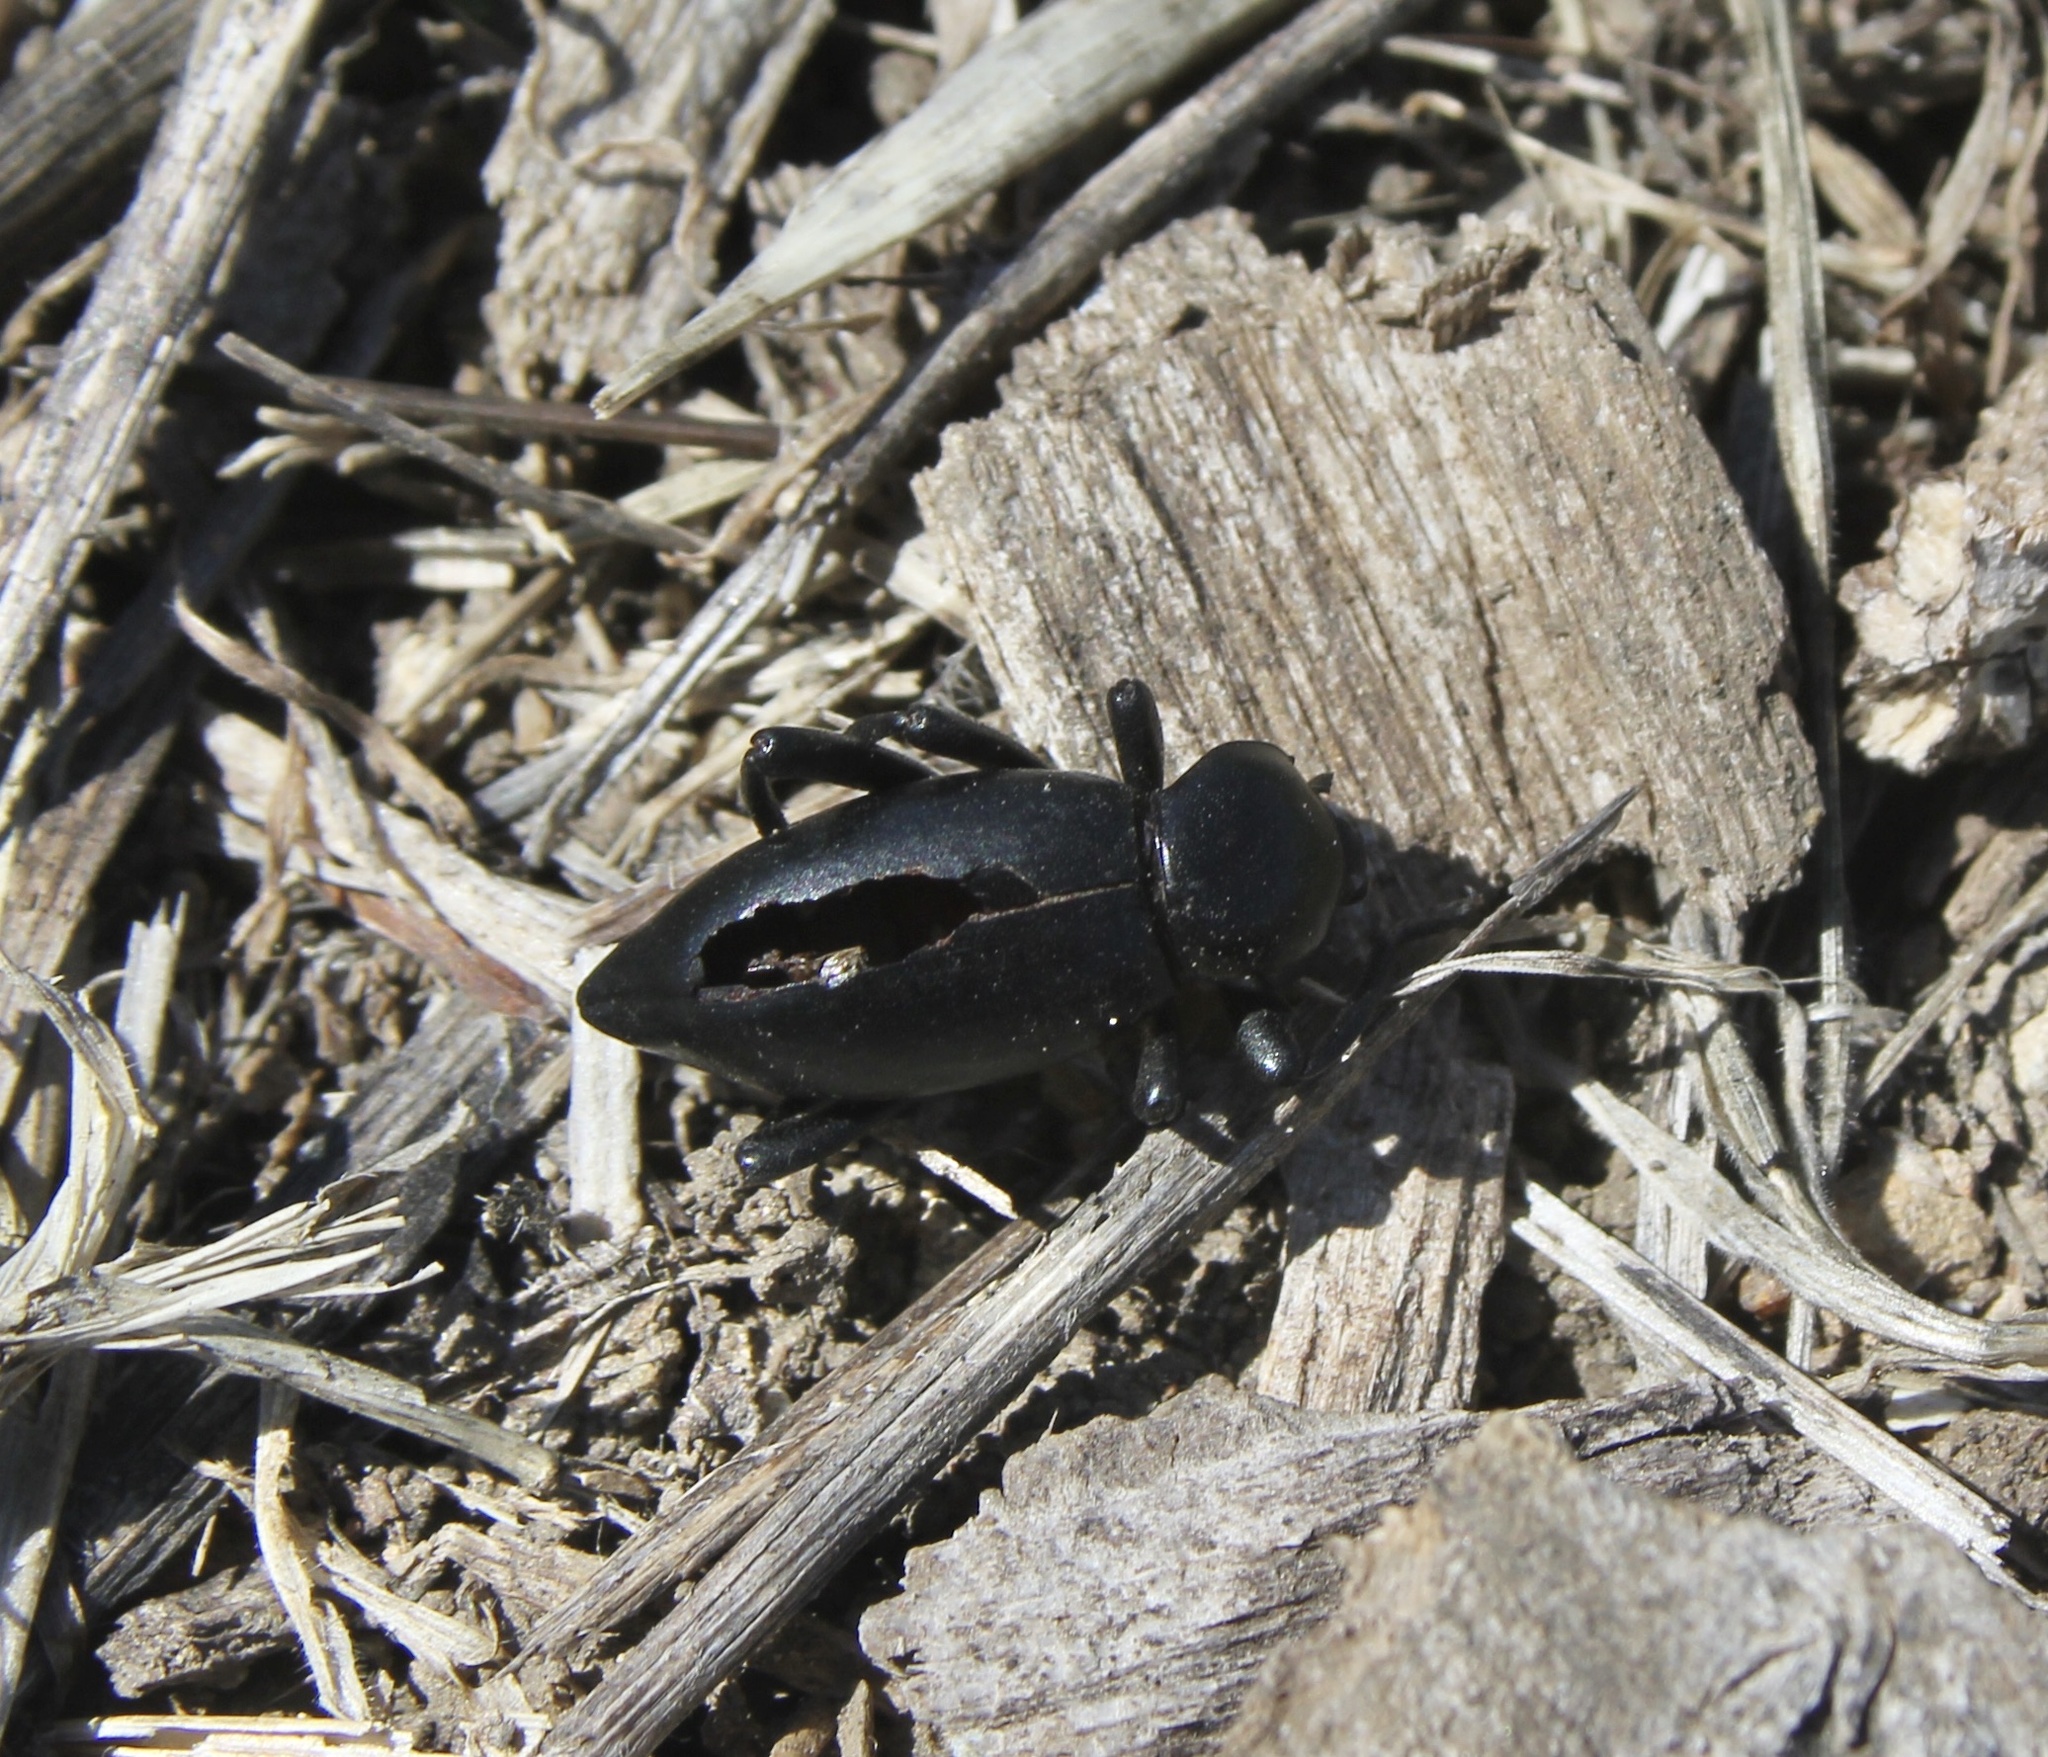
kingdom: Animalia
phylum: Arthropoda
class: Insecta
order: Coleoptera
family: Tenebrionidae
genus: Eleodes
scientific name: Eleodes acuticauda
